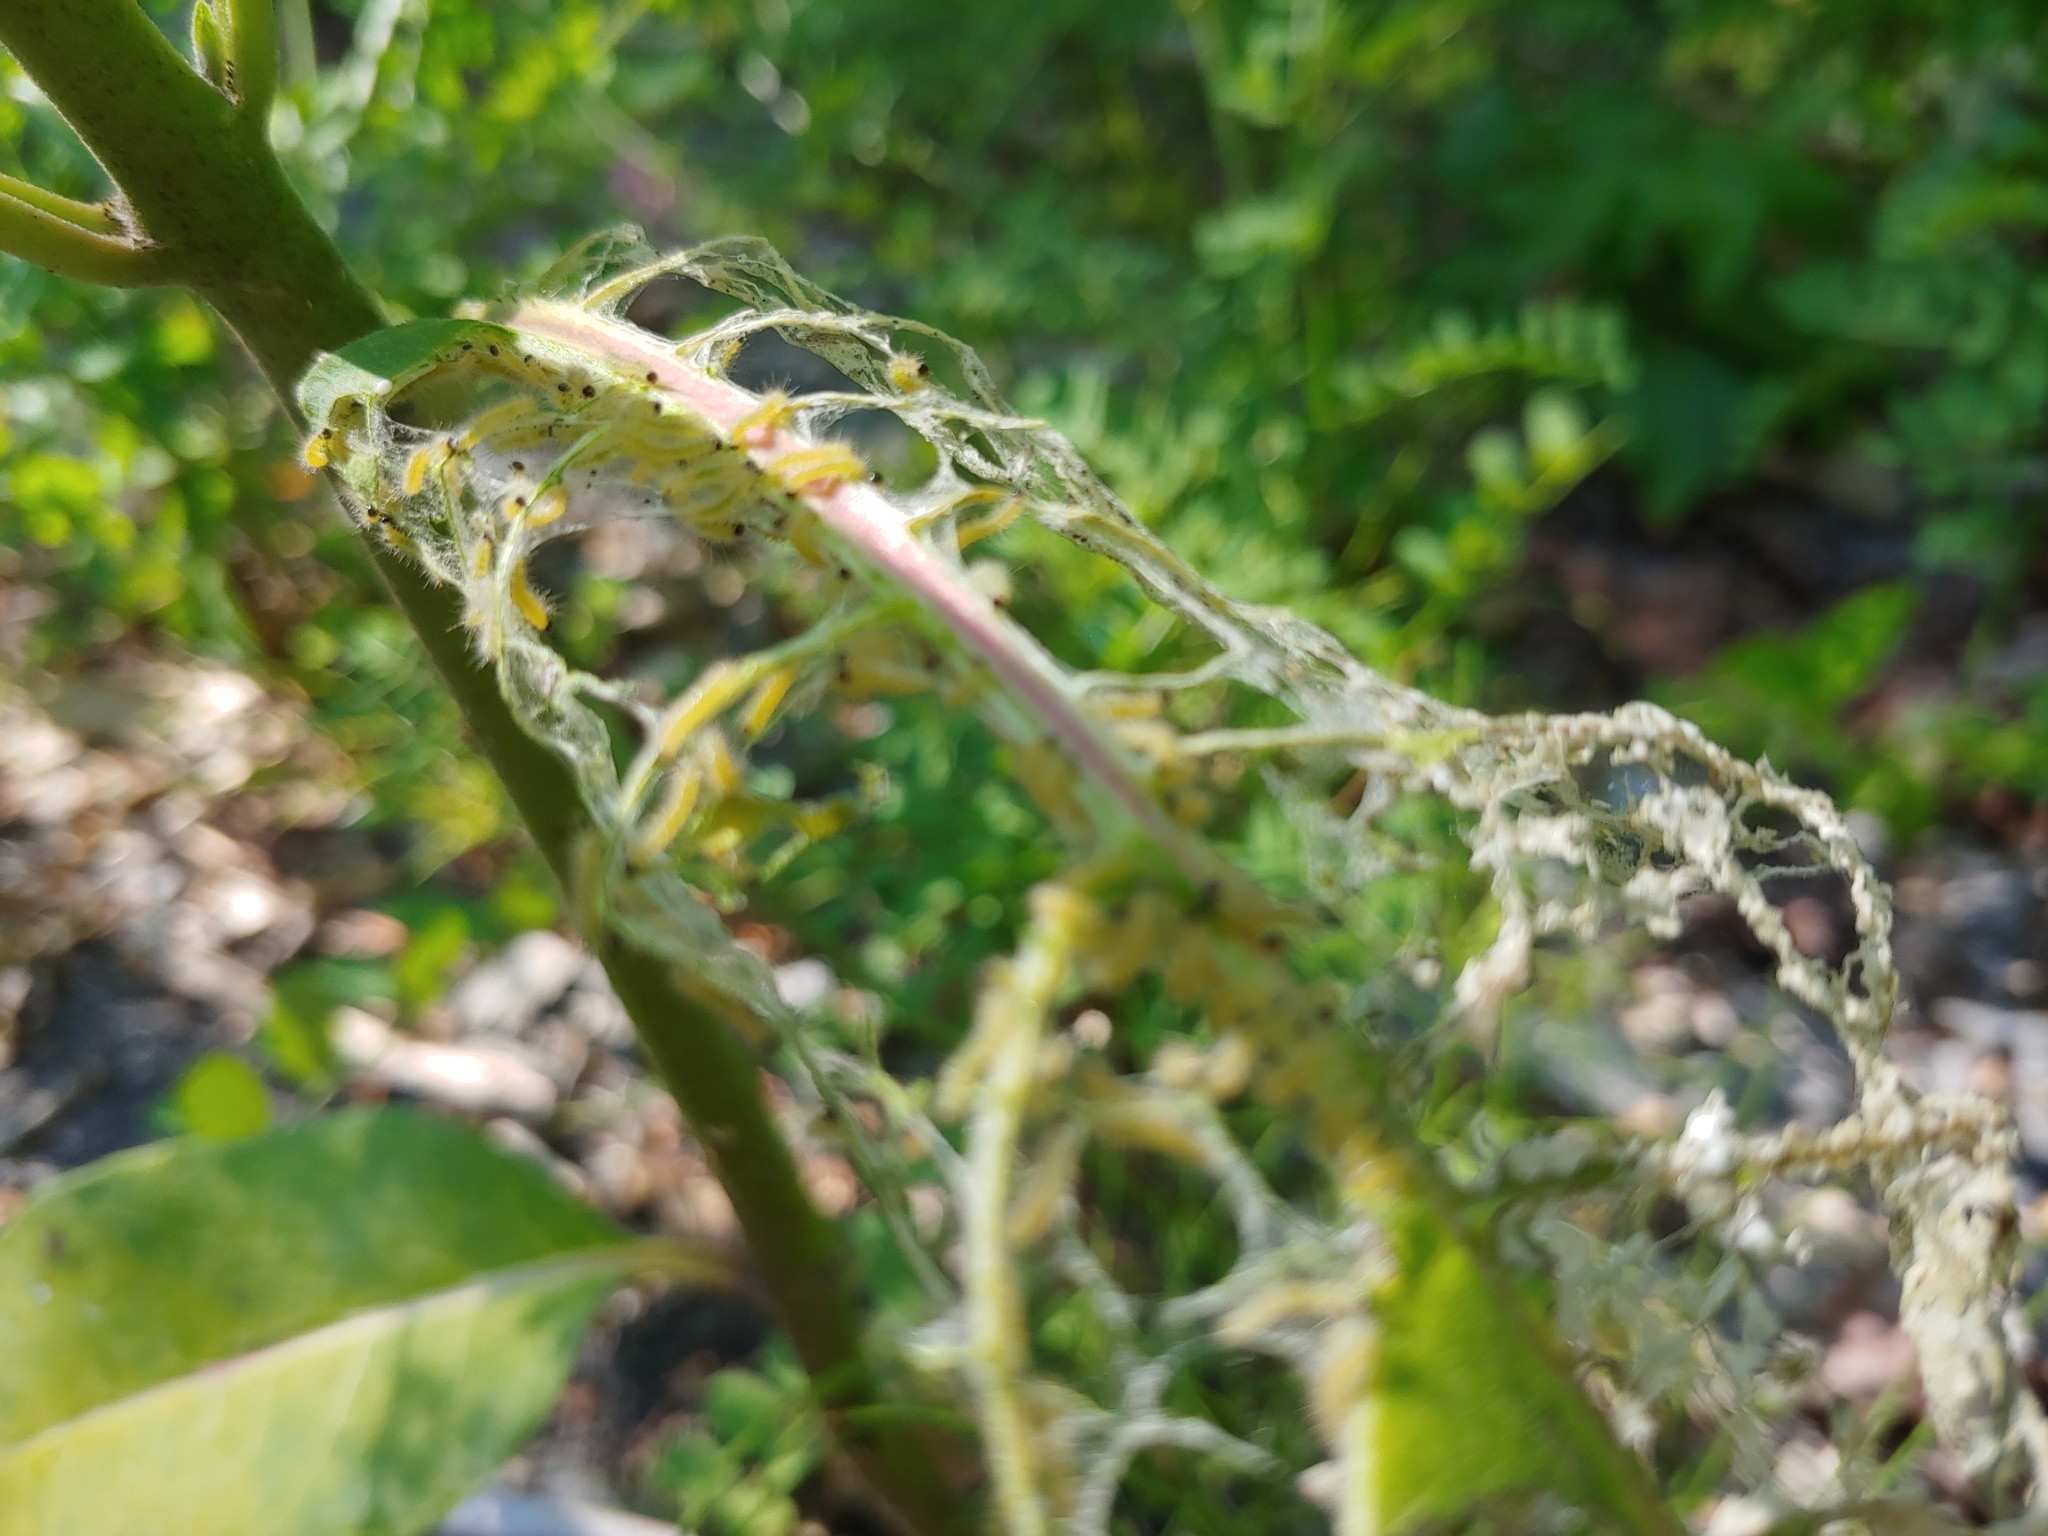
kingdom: Animalia
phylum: Arthropoda
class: Insecta
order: Lepidoptera
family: Erebidae
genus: Euchaetes
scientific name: Euchaetes egle
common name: Milkweed tussock moth
